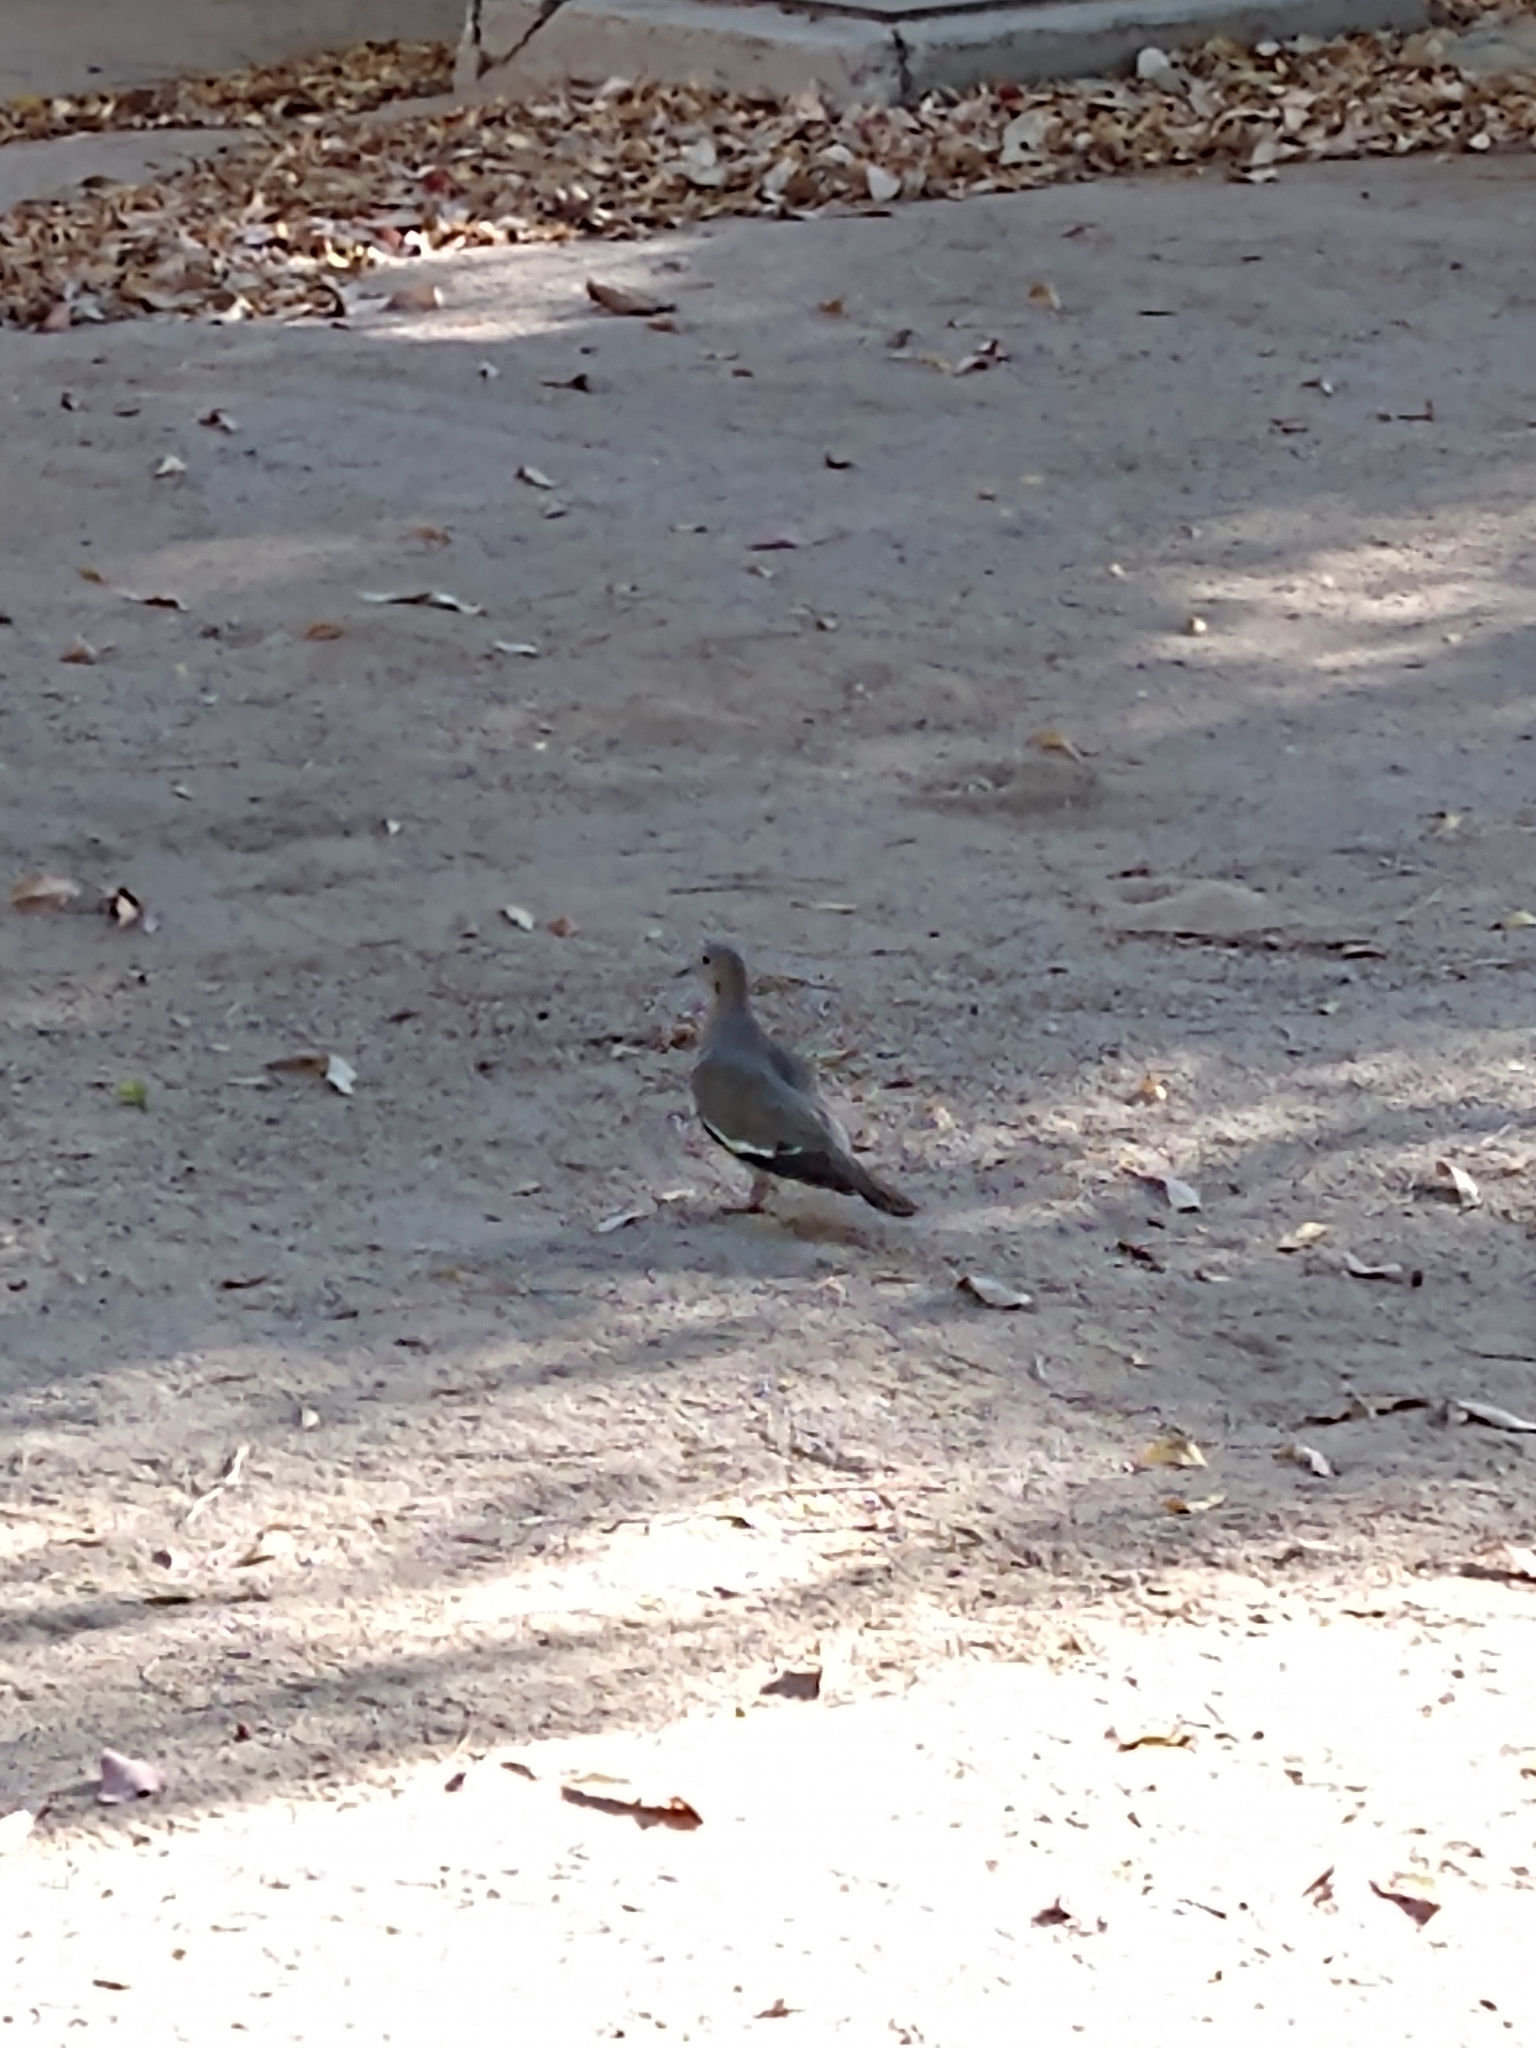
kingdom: Animalia
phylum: Chordata
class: Aves
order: Columbiformes
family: Columbidae
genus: Zenaida
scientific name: Zenaida asiatica
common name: White-winged dove
